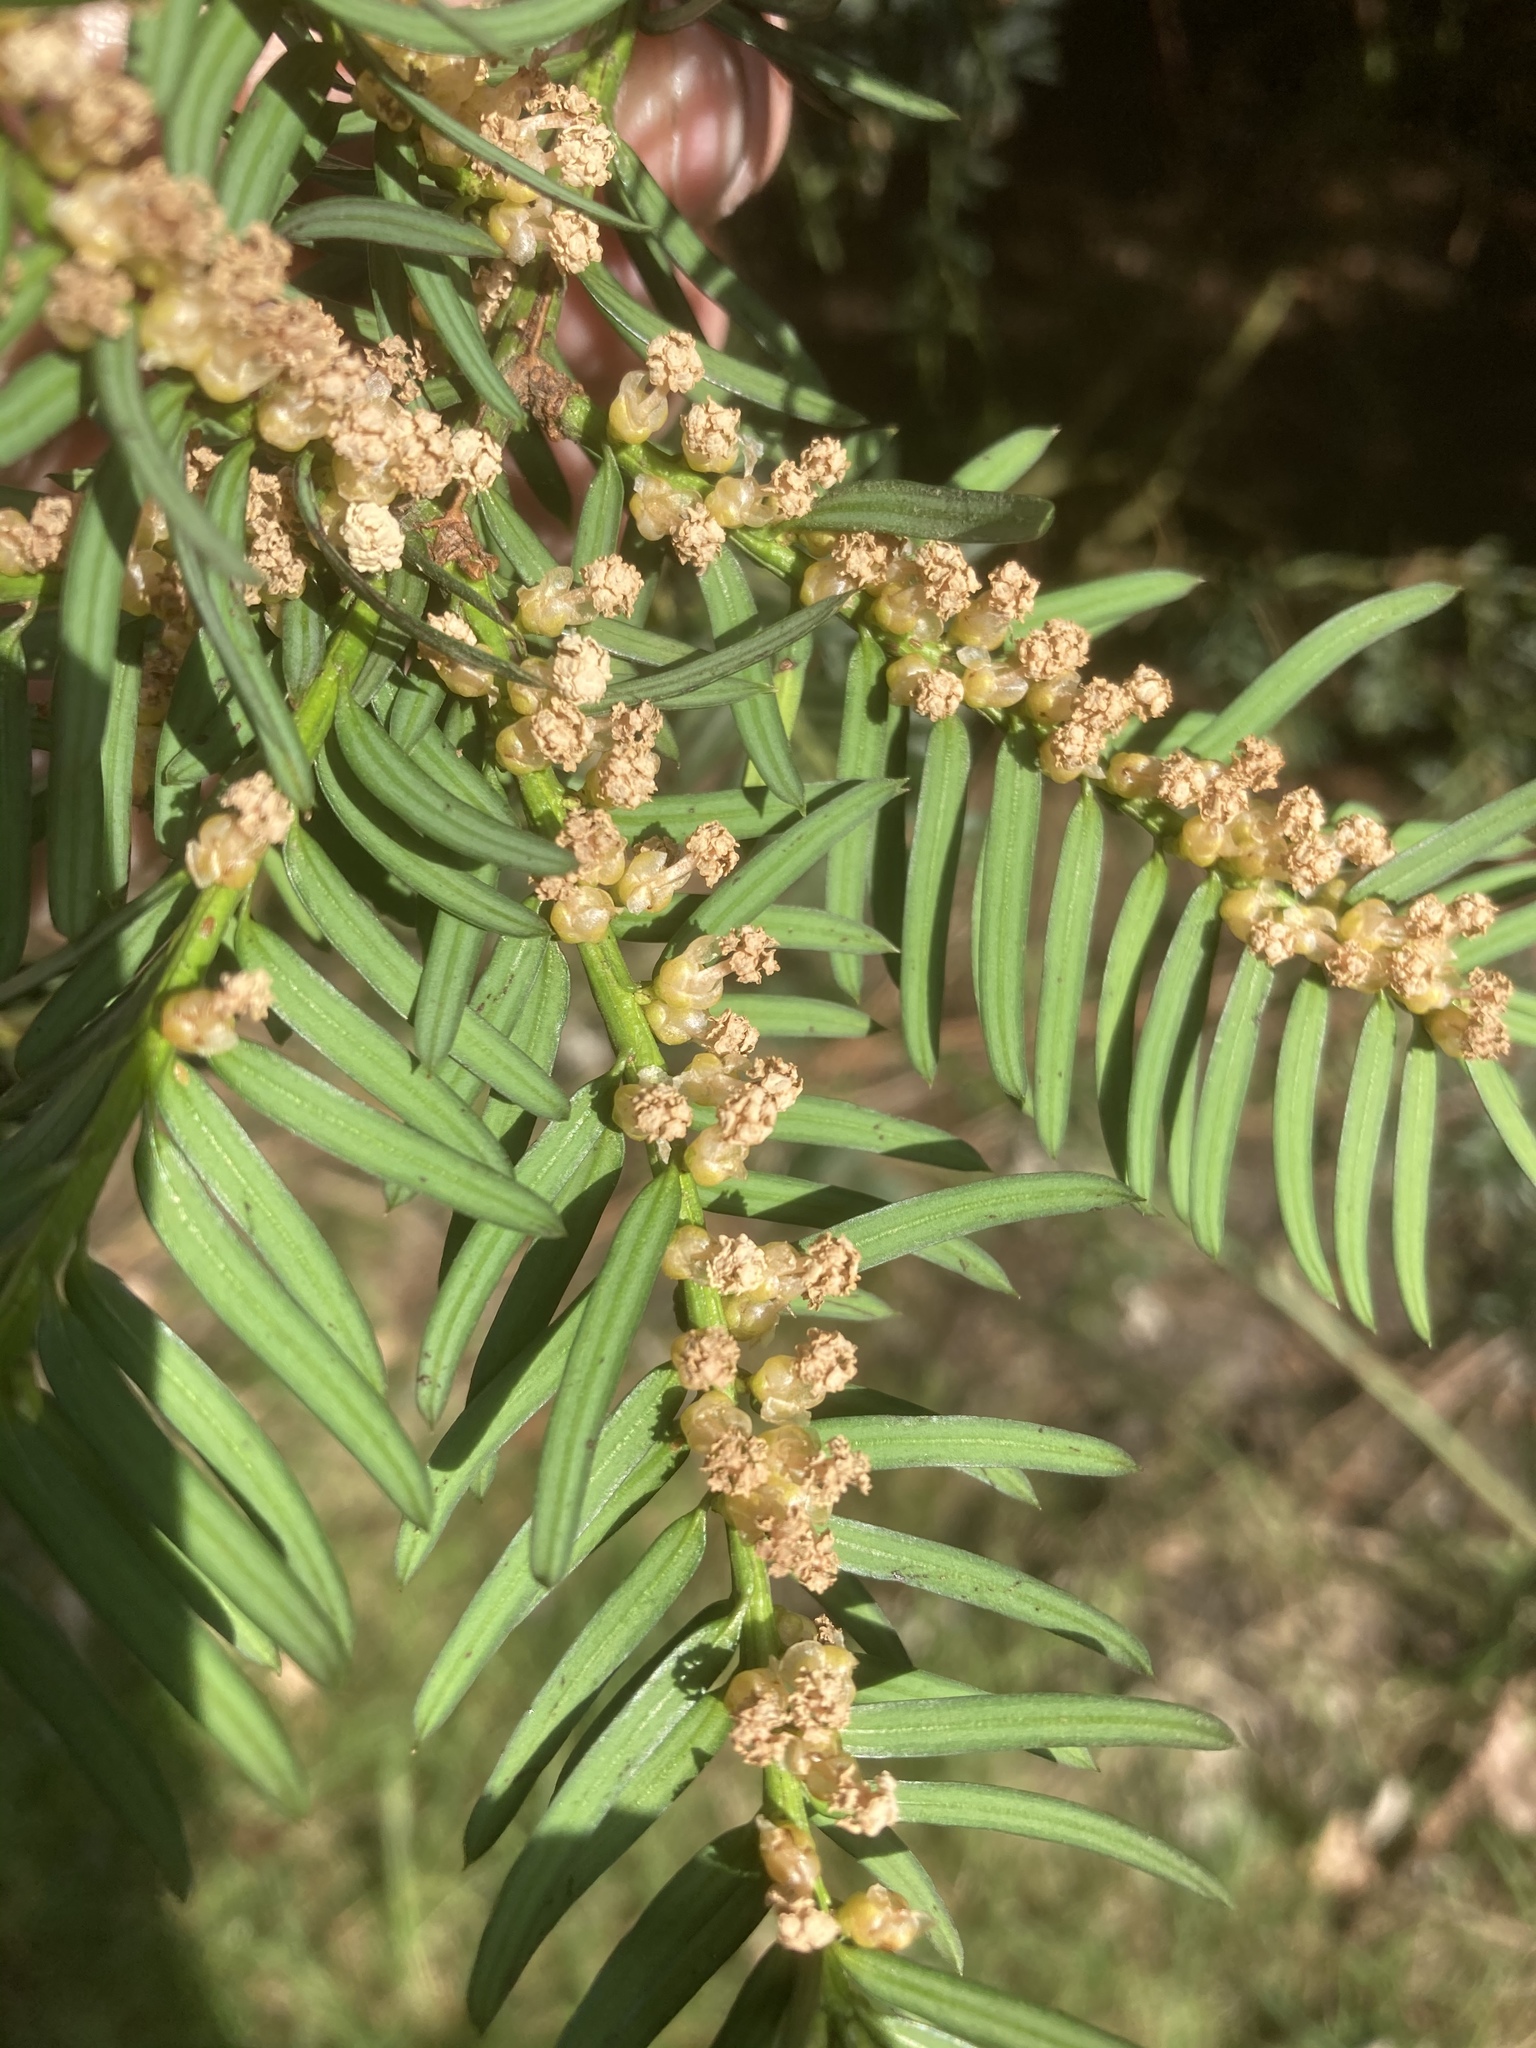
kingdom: Plantae
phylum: Tracheophyta
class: Pinopsida
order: Pinales
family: Taxaceae
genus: Taxus
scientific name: Taxus baccata
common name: Yew
